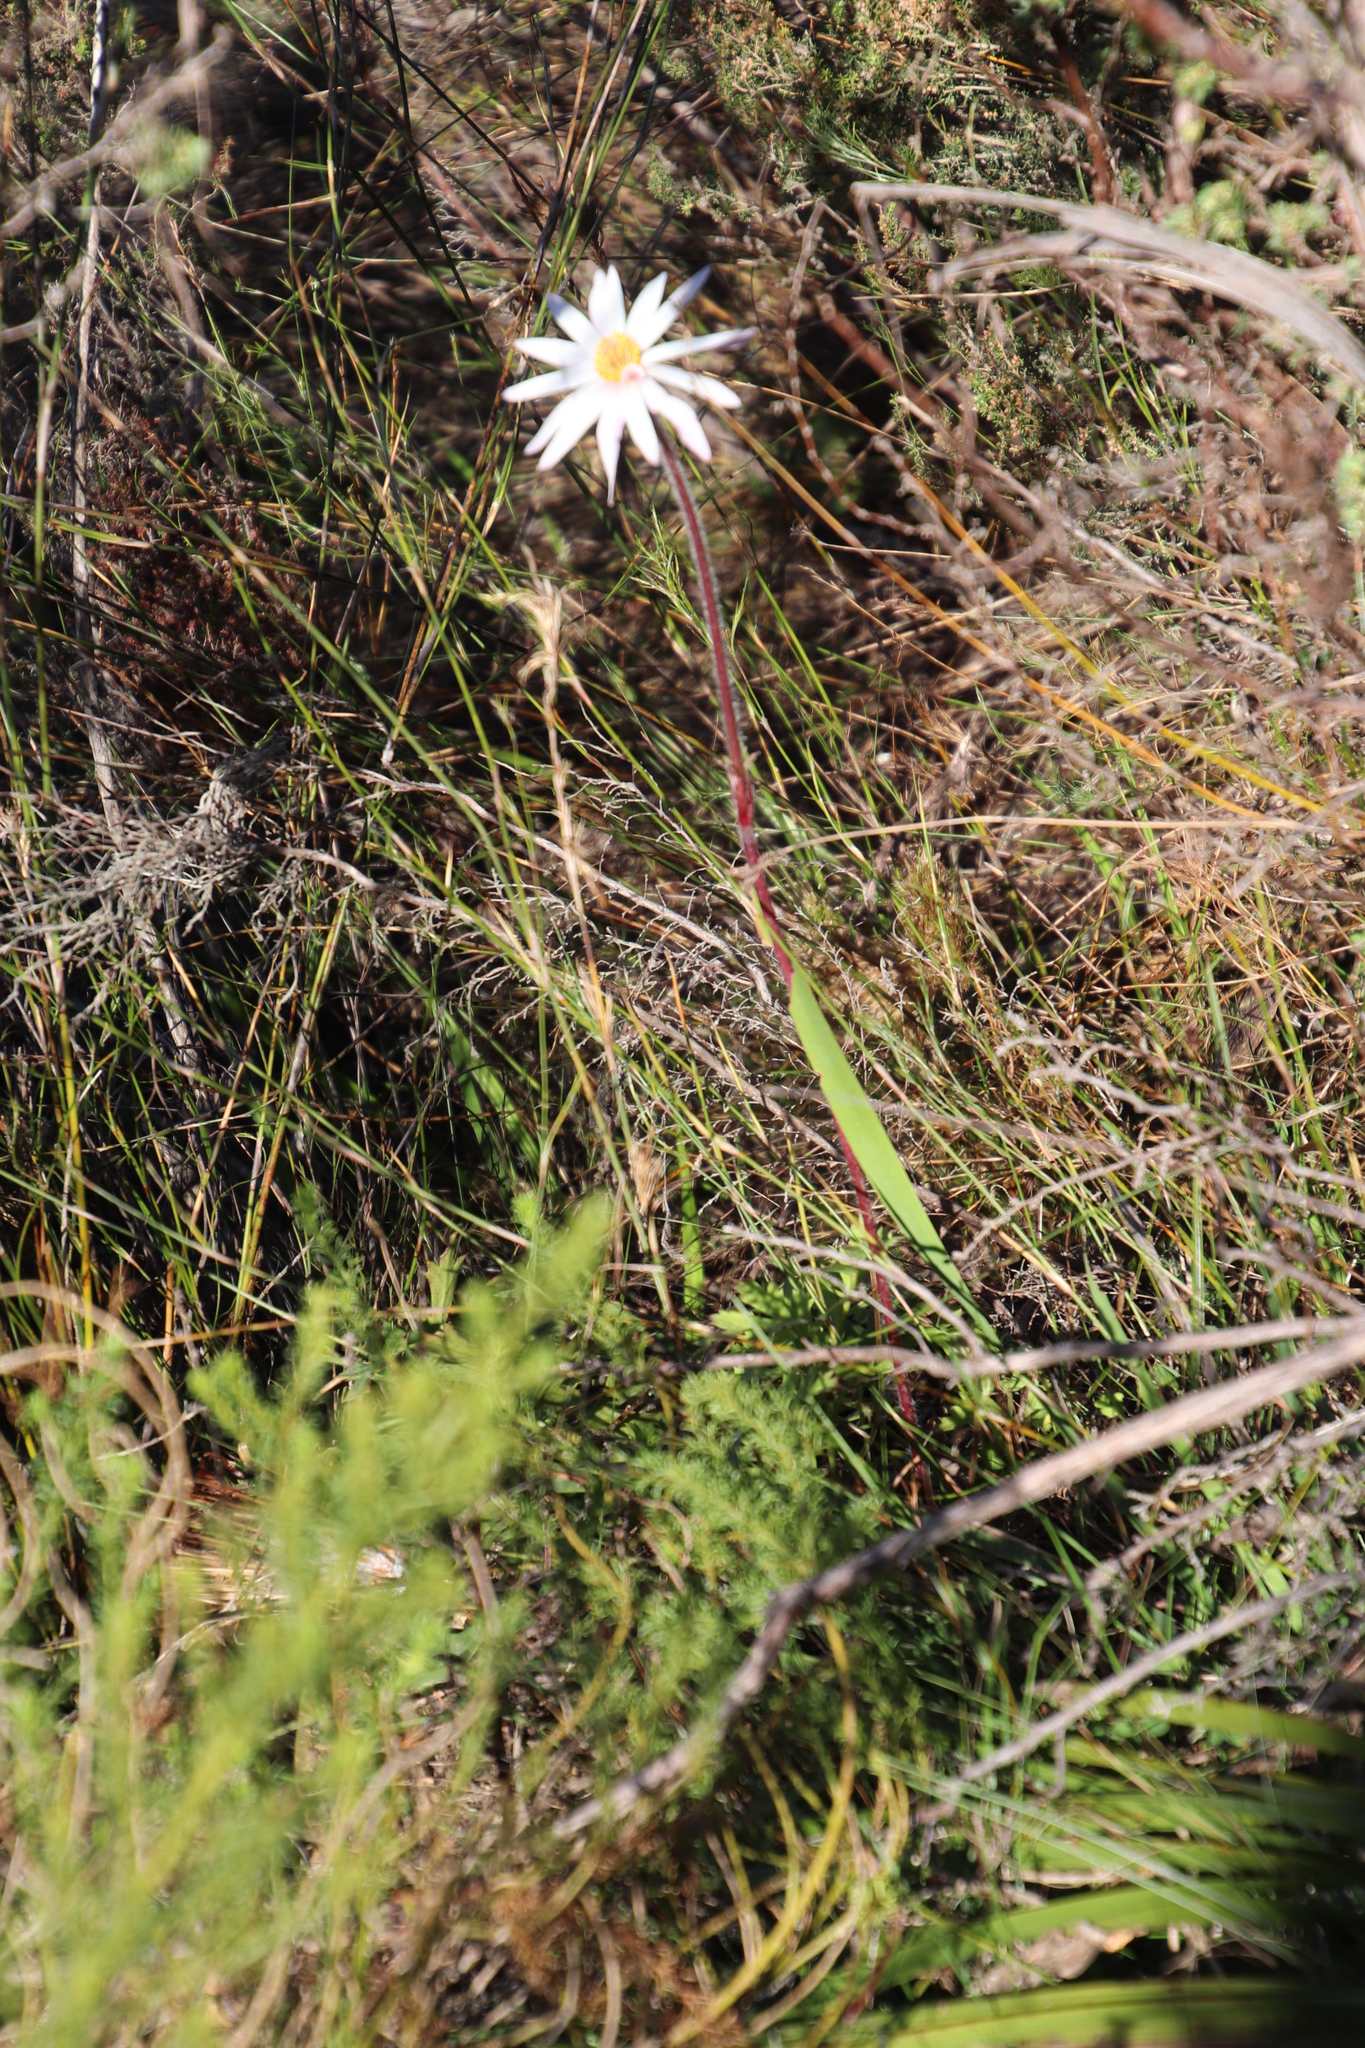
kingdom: Plantae
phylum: Tracheophyta
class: Magnoliopsida
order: Ranunculales
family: Ranunculaceae
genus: Knowltonia
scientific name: Knowltonia tenuifolia
